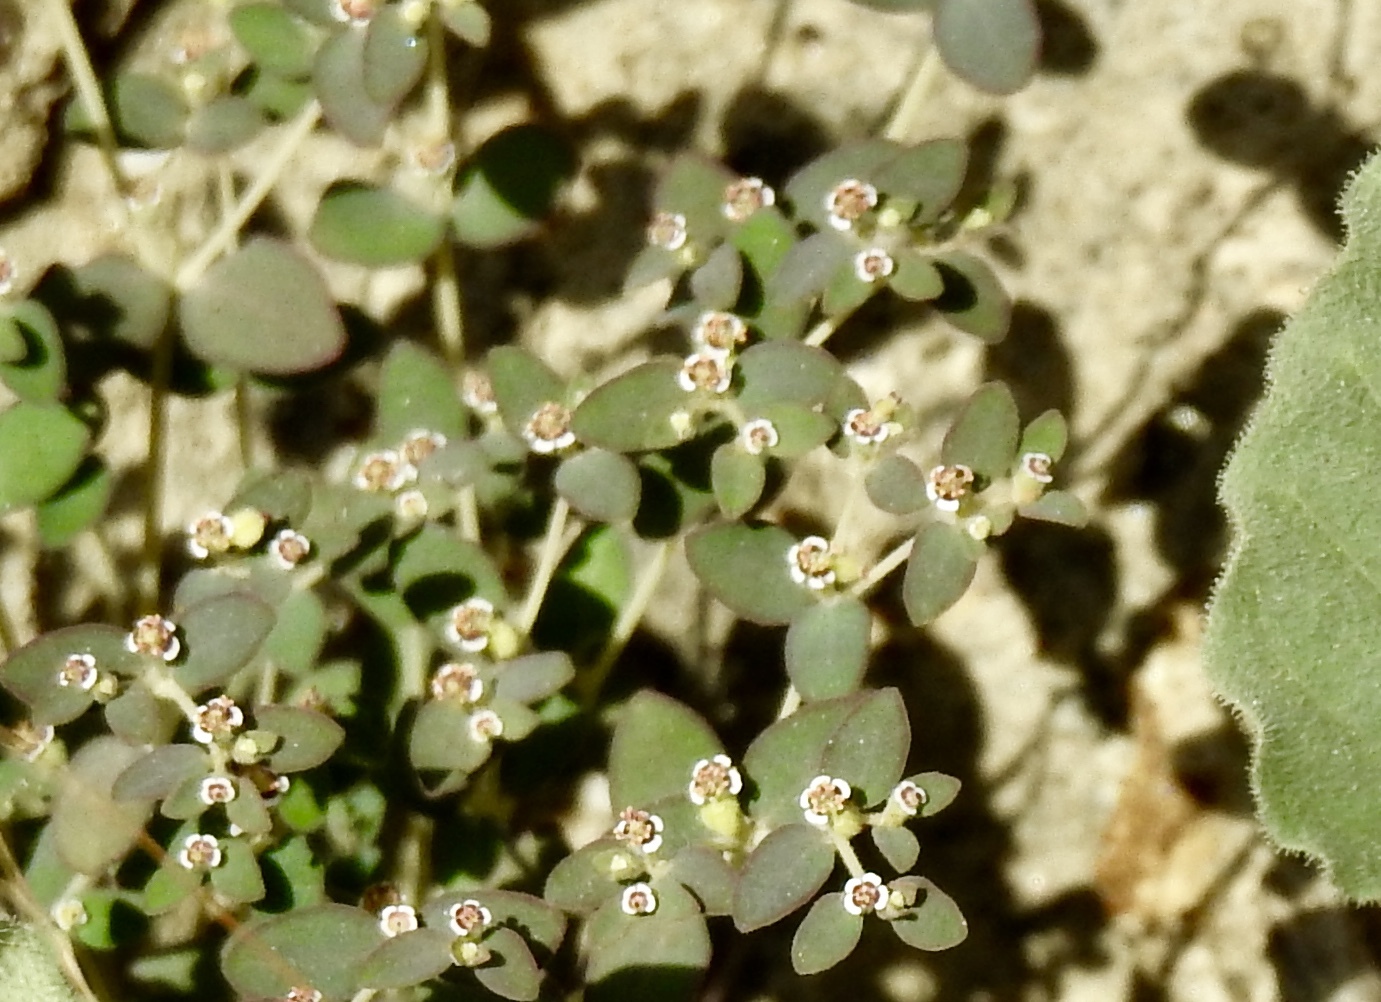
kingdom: Plantae
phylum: Tracheophyta
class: Magnoliopsida
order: Malpighiales
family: Euphorbiaceae
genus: Euphorbia
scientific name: Euphorbia polycarpa
